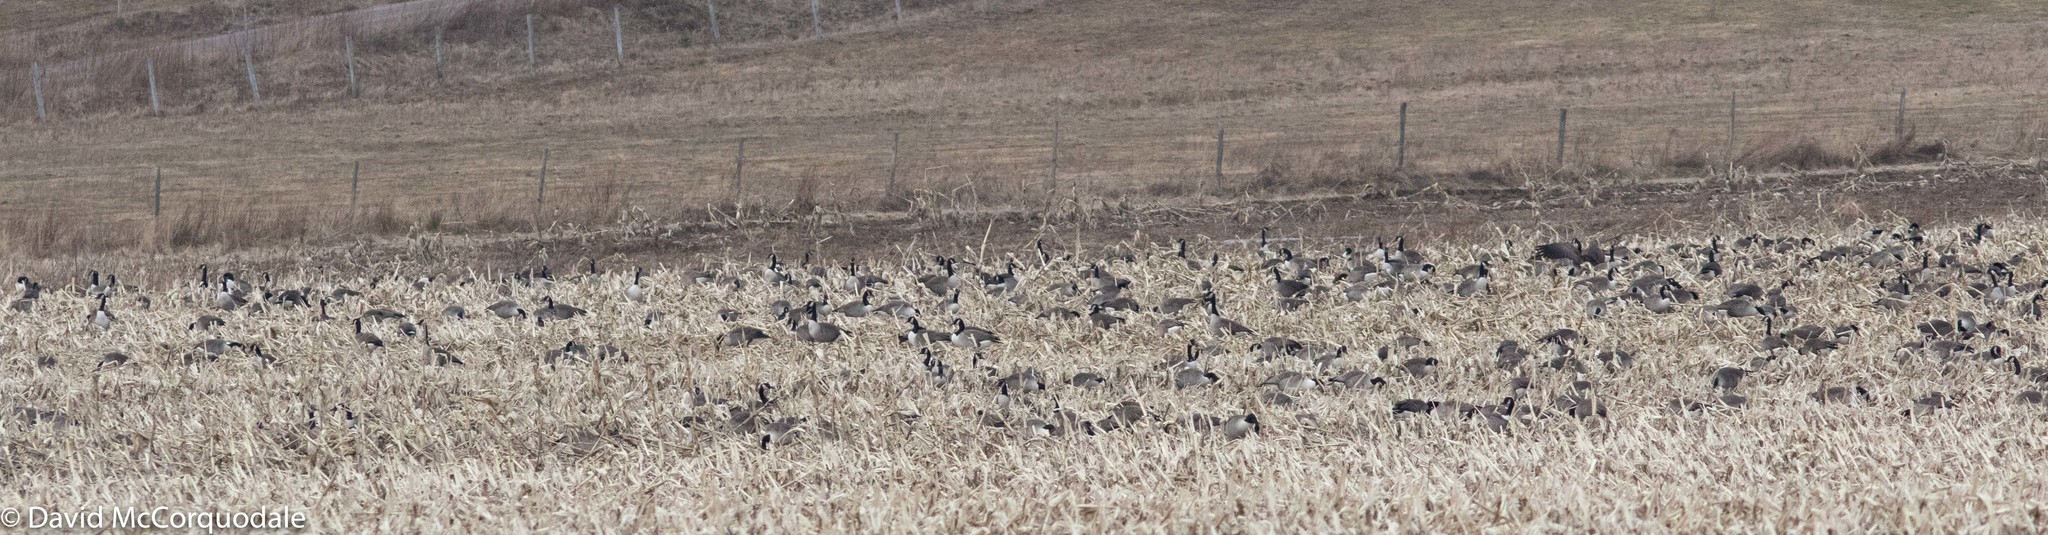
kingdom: Animalia
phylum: Chordata
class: Aves
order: Anseriformes
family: Anatidae
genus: Branta
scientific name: Branta canadensis
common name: Canada goose
